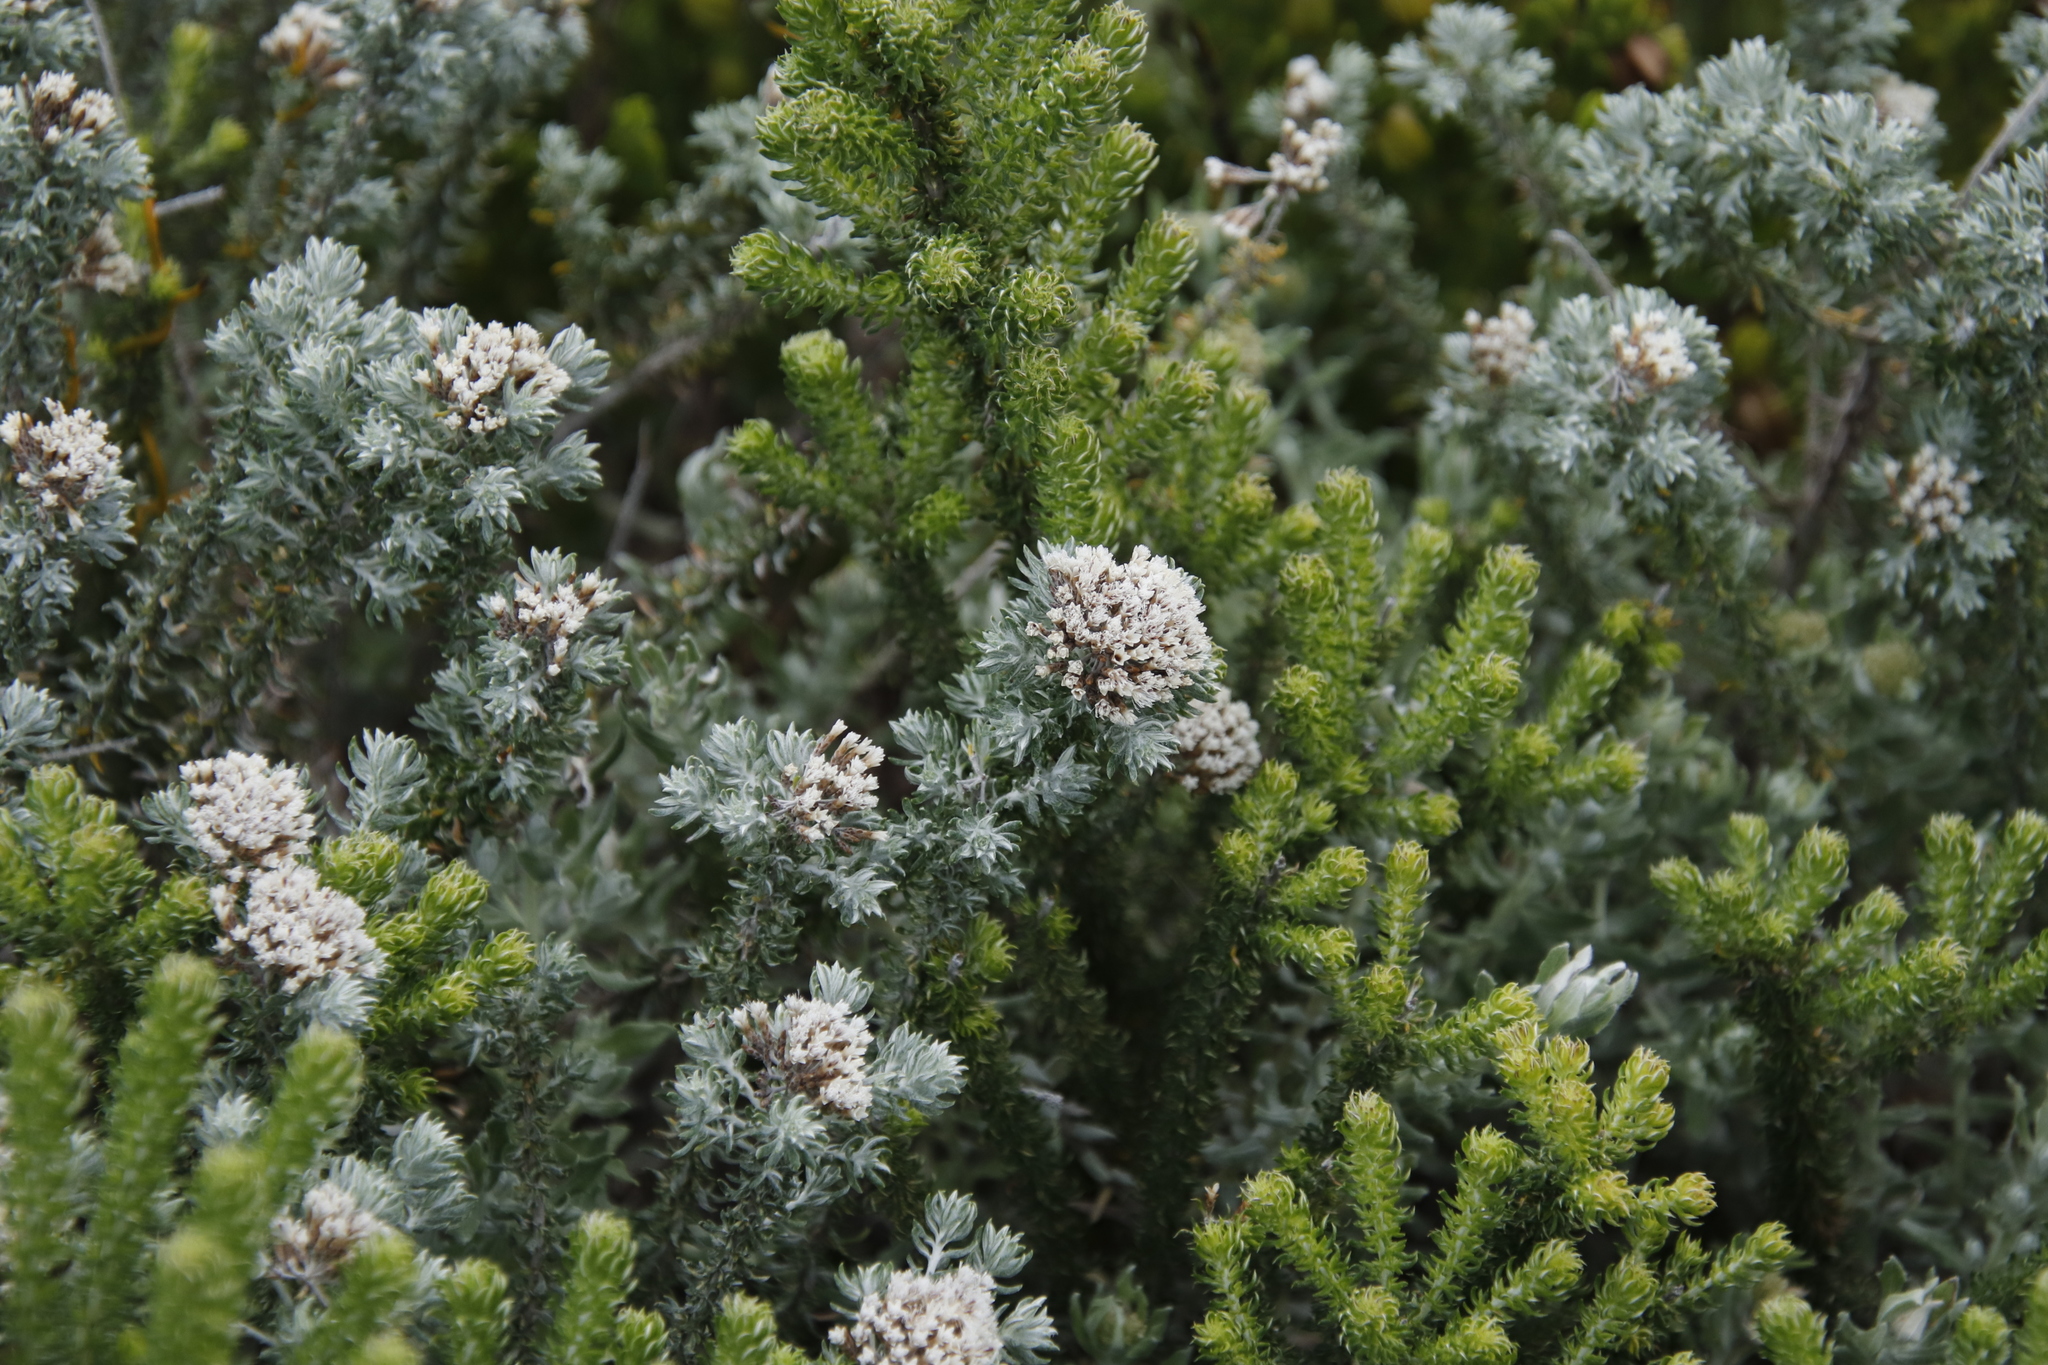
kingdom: Plantae
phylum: Tracheophyta
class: Magnoliopsida
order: Asterales
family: Asteraceae
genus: Metalasia
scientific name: Metalasia muricata
